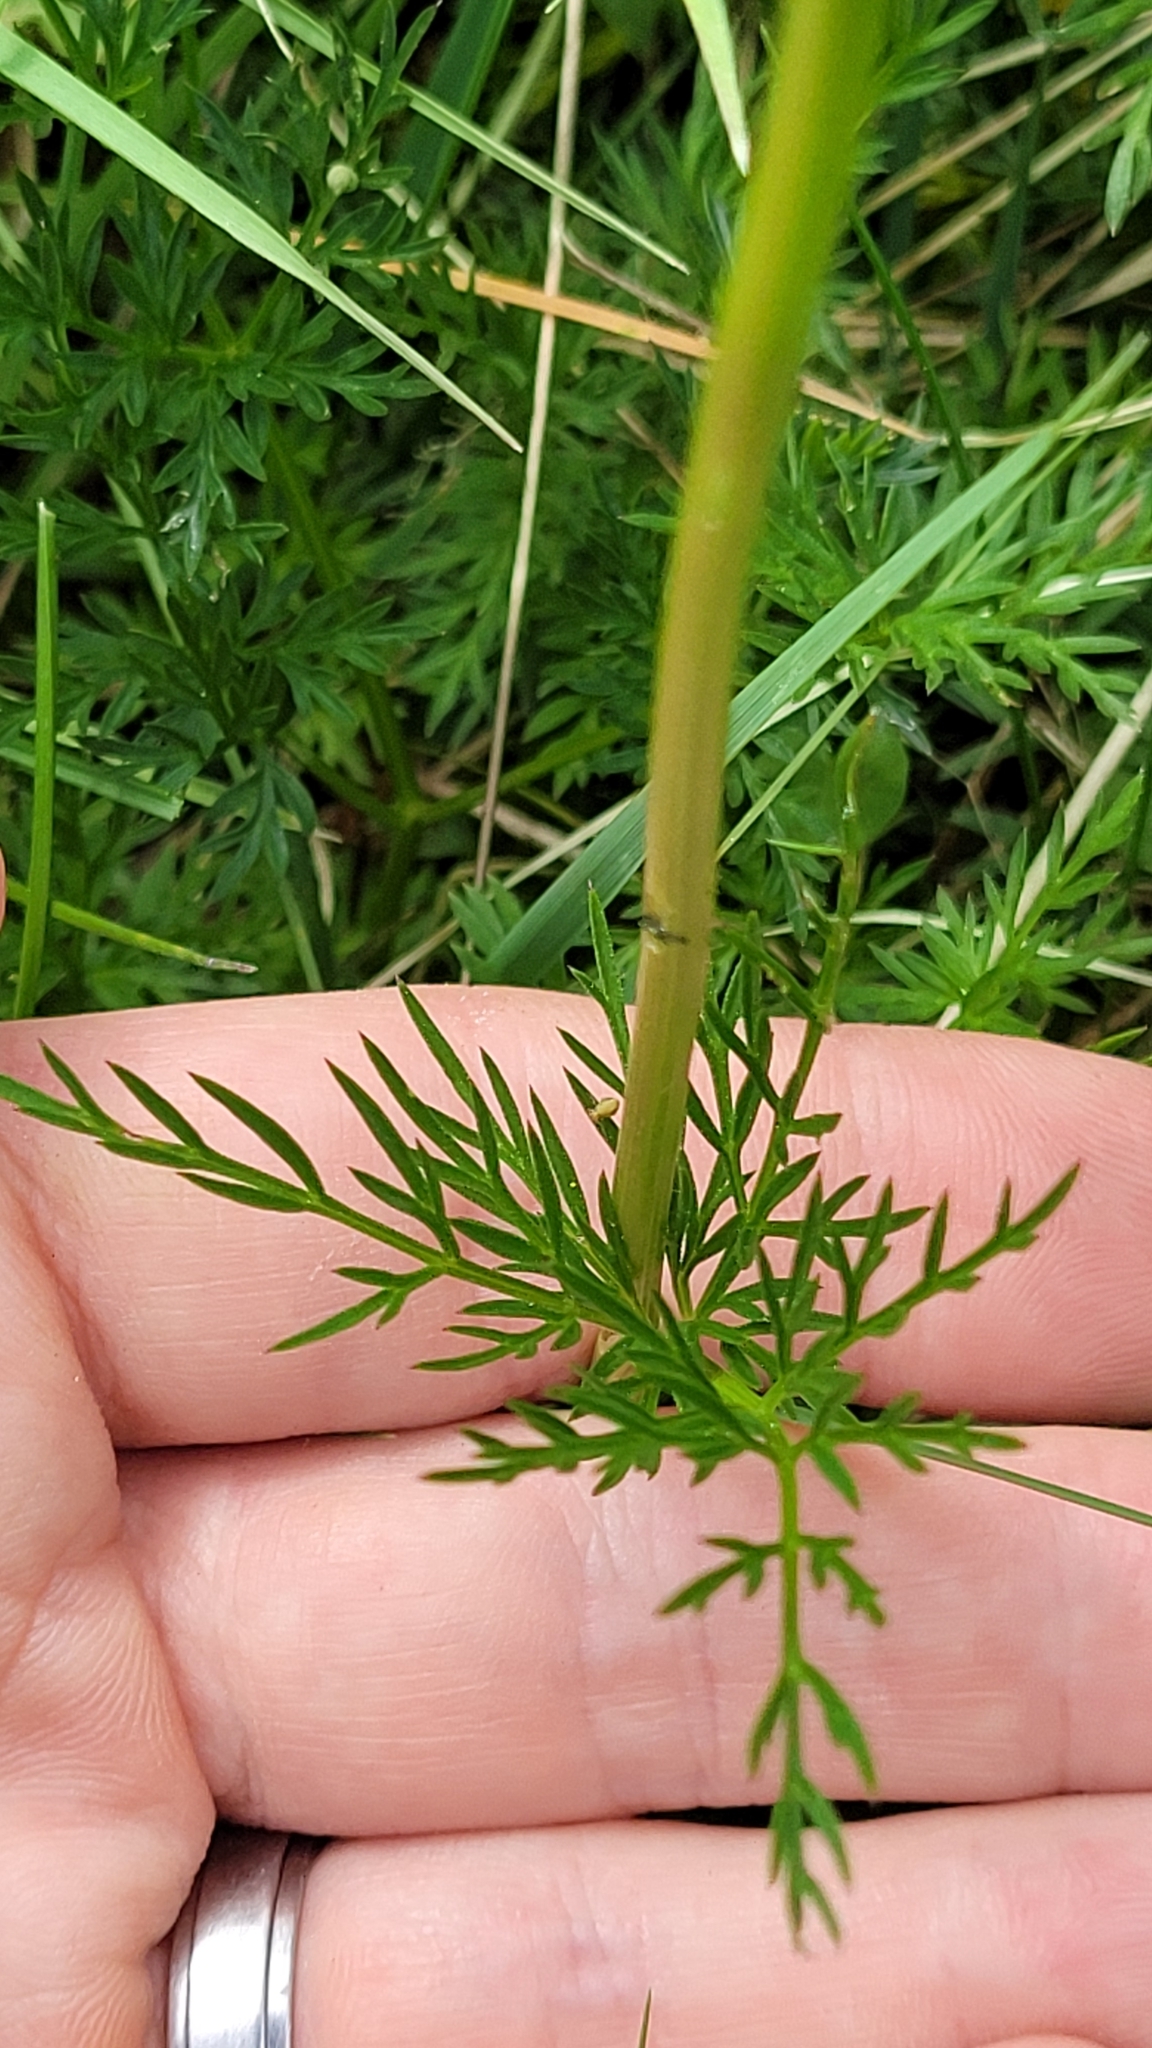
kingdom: Plantae
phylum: Tracheophyta
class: Magnoliopsida
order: Apiales
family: Apiaceae
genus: Conopodium
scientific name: Conopodium majus
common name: Pignut
